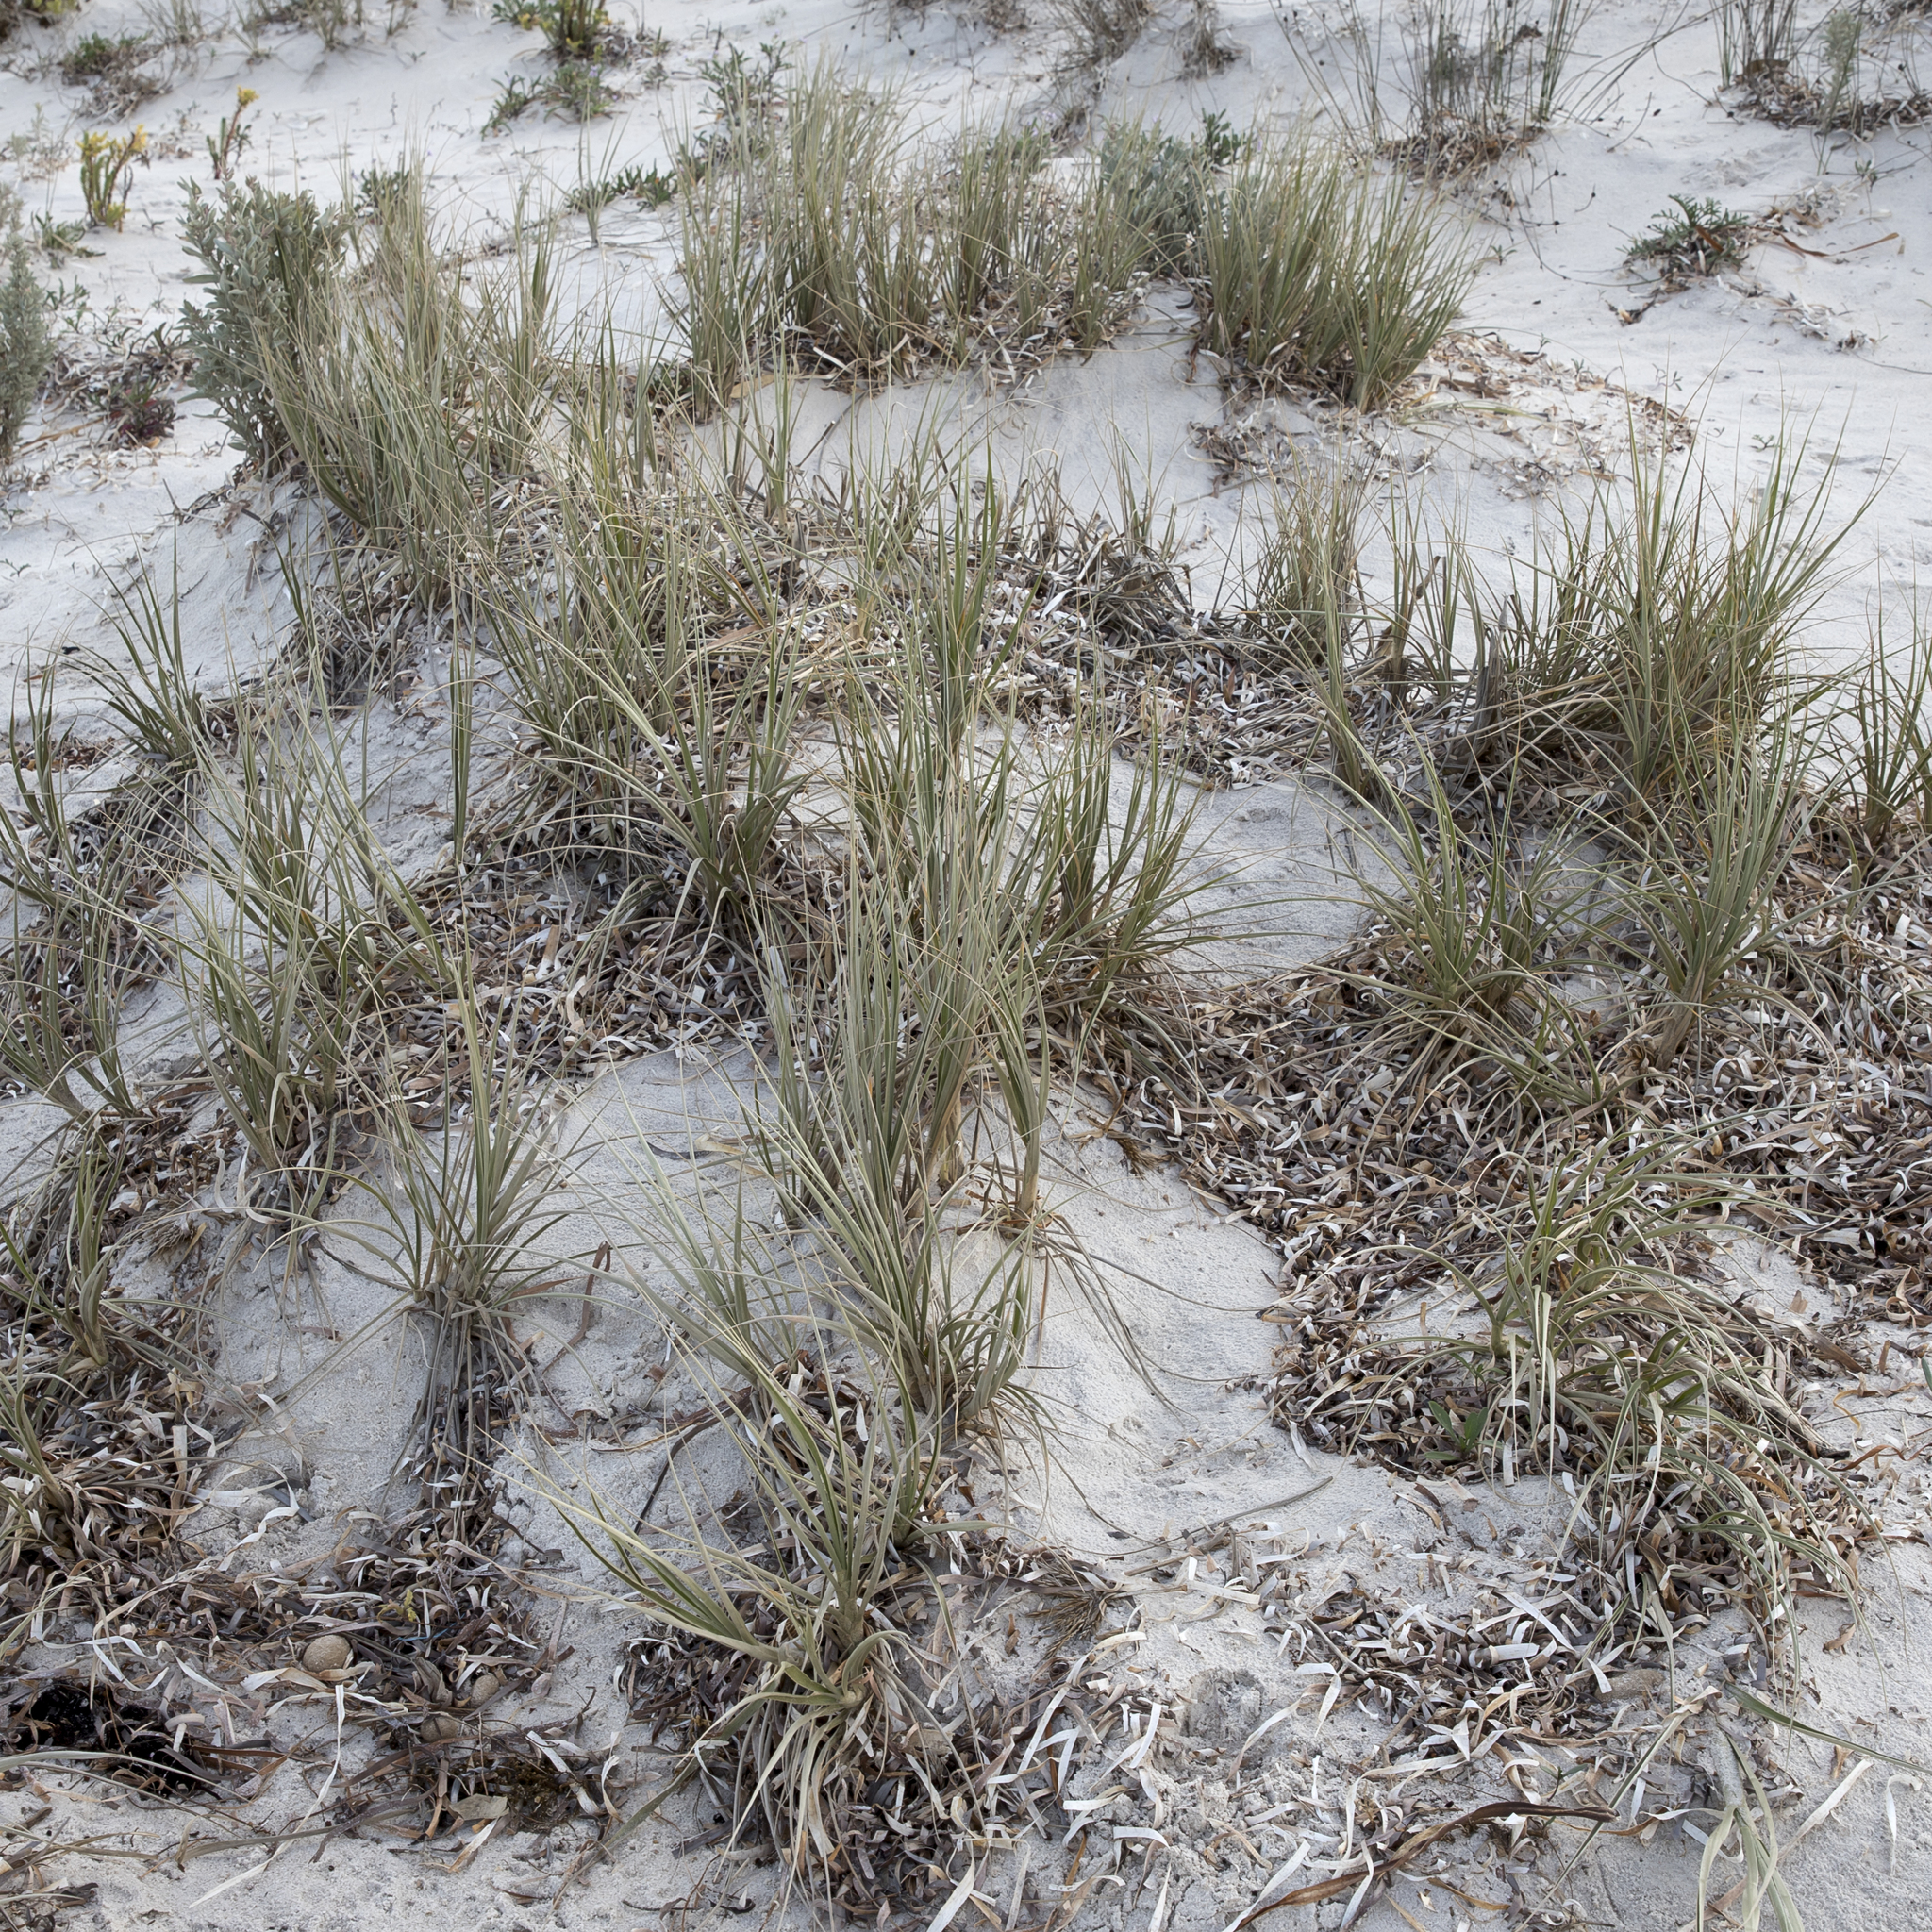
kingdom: Plantae
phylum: Tracheophyta
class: Liliopsida
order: Poales
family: Poaceae
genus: Spinifex
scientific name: Spinifex hirsutus
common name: Hairy spinifex
